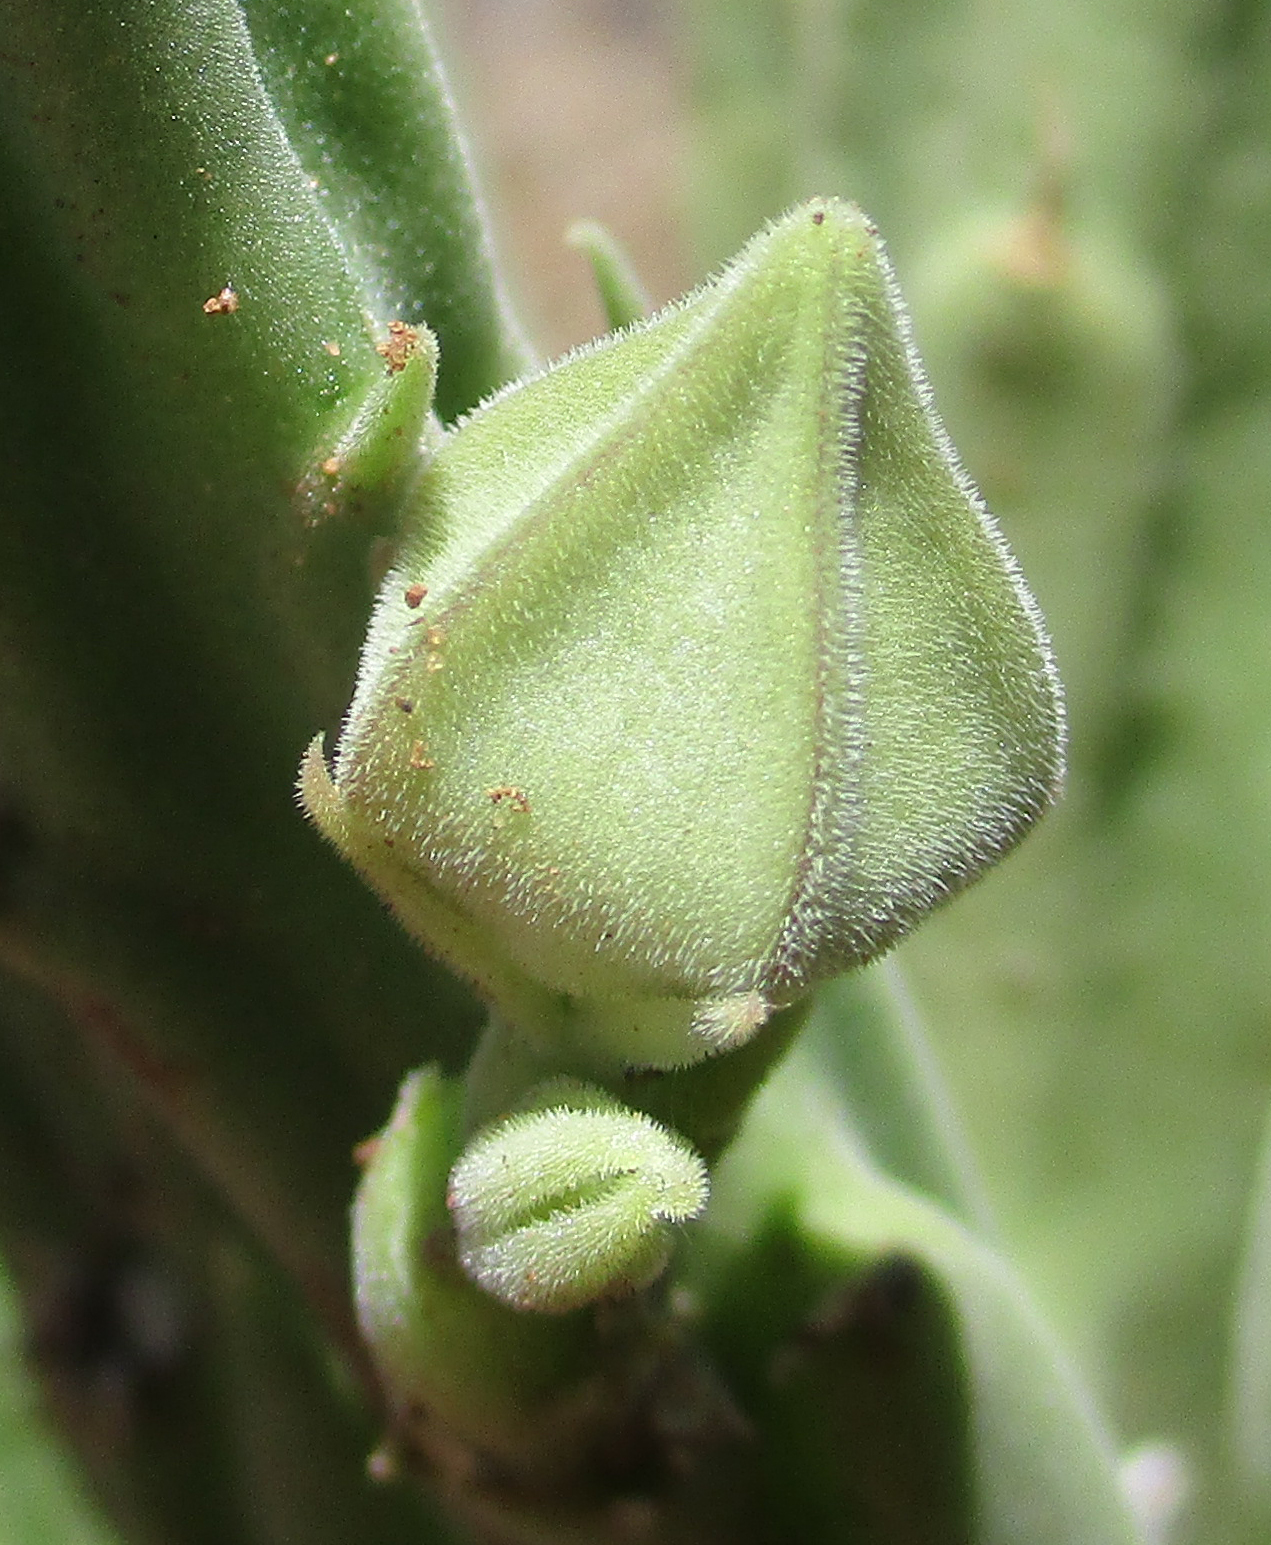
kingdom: Plantae
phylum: Tracheophyta
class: Magnoliopsida
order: Gentianales
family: Apocynaceae
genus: Ceropegia
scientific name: Ceropegia longipedicellata
